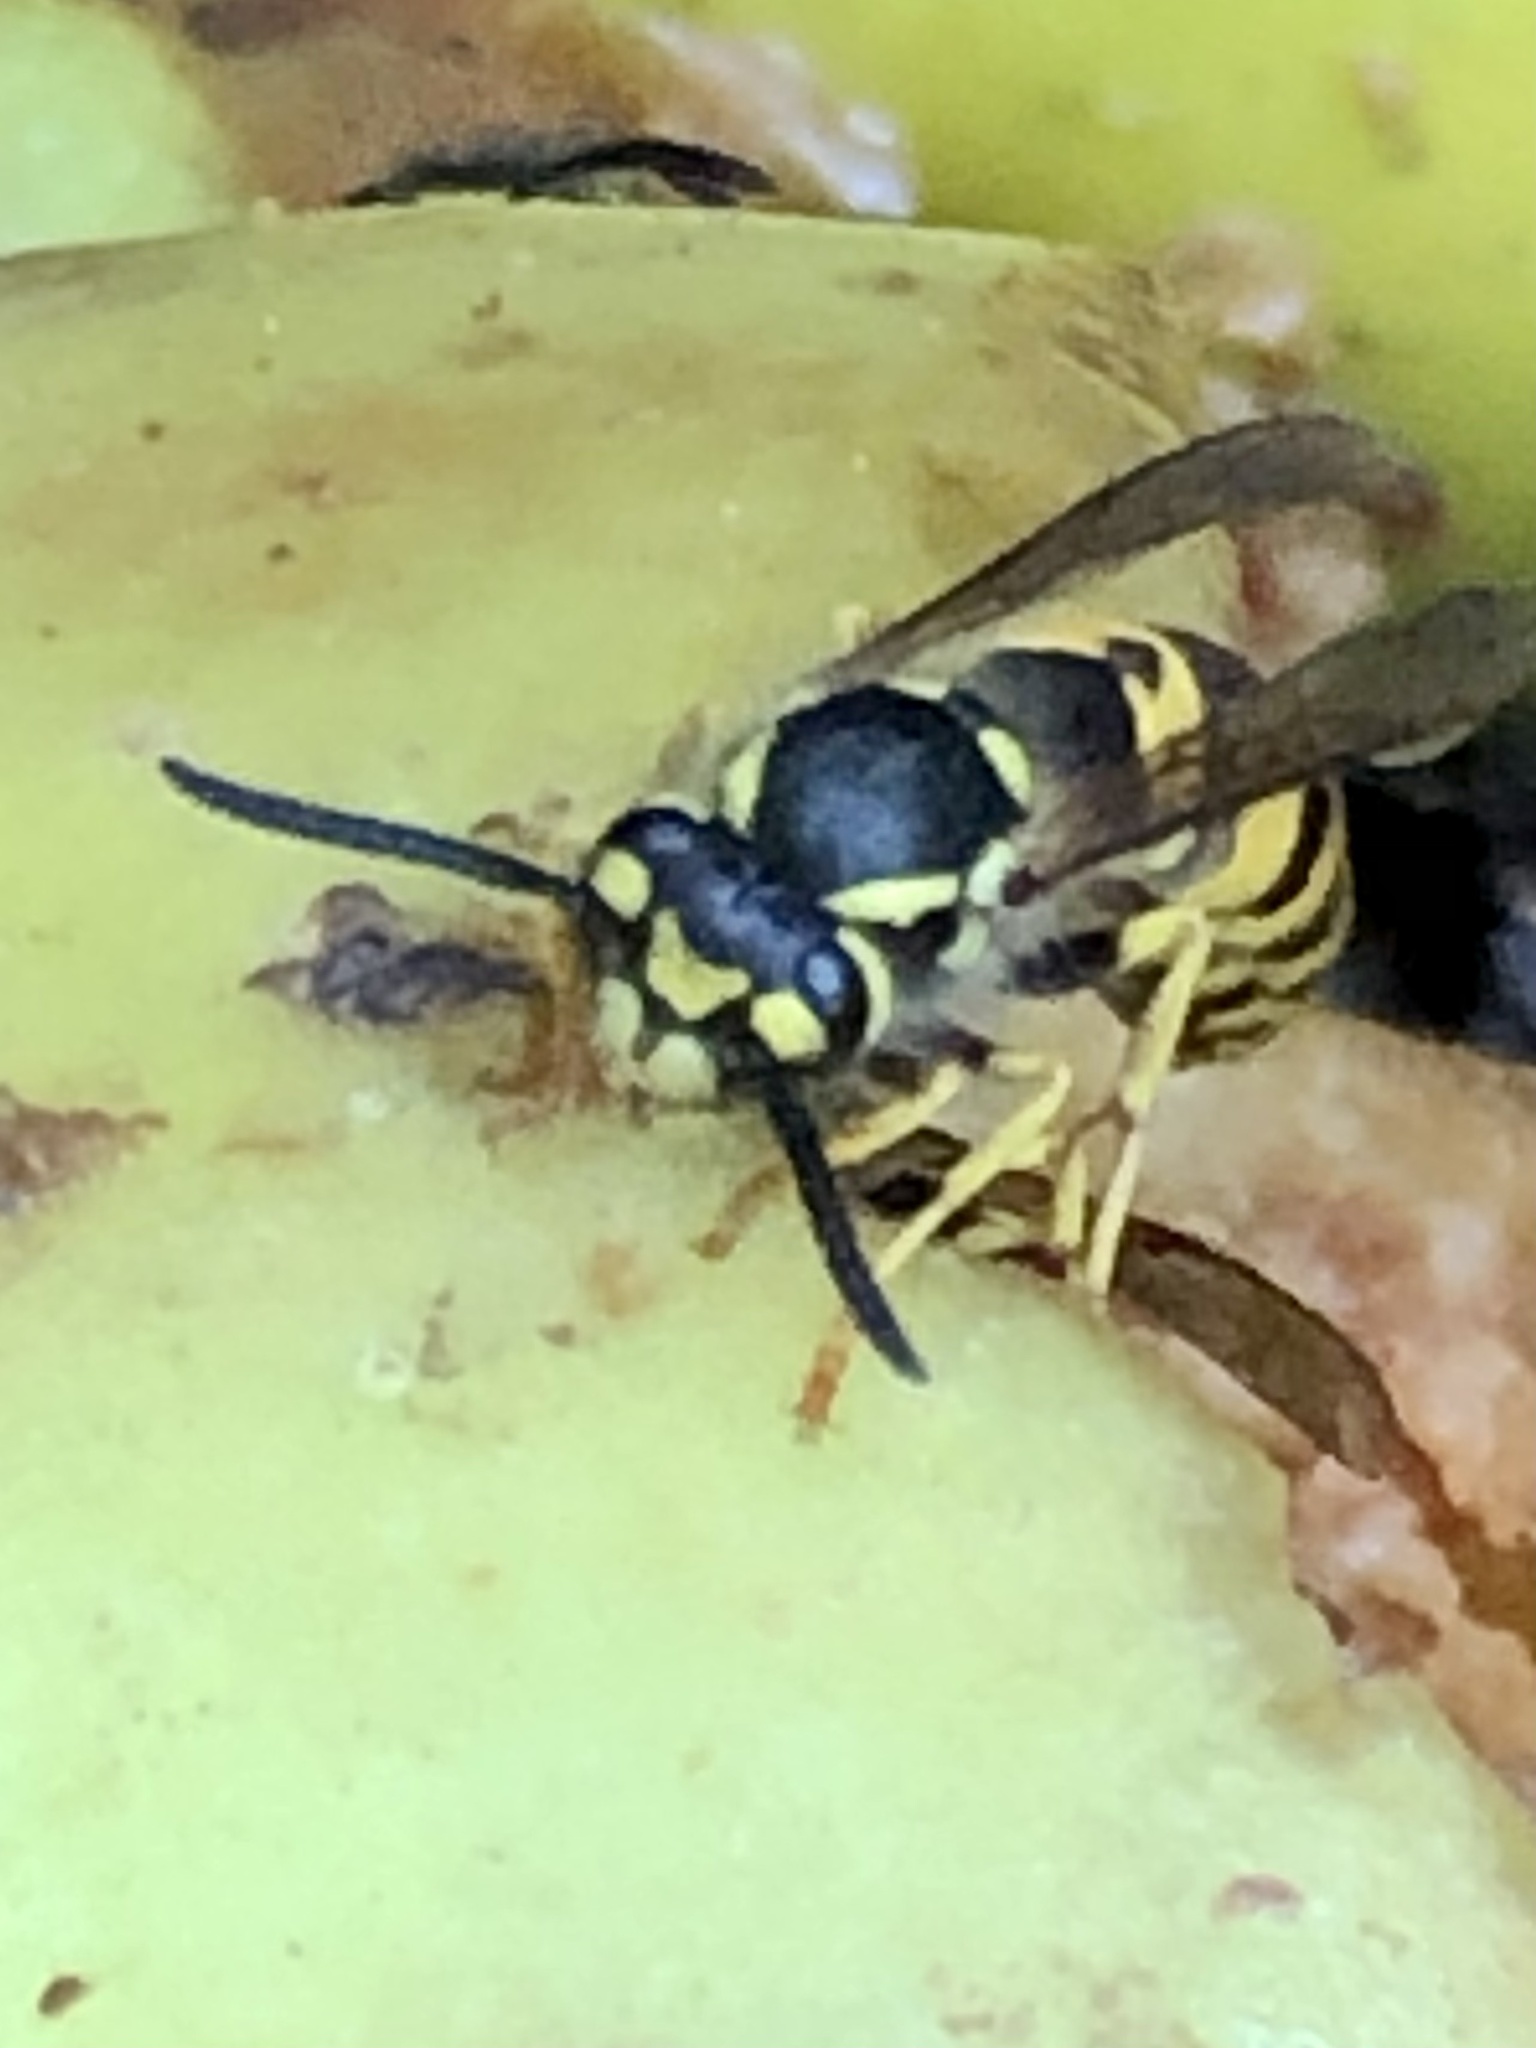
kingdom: Animalia
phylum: Arthropoda
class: Insecta
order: Hymenoptera
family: Vespidae
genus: Vespula
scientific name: Vespula germanica
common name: German wasp
